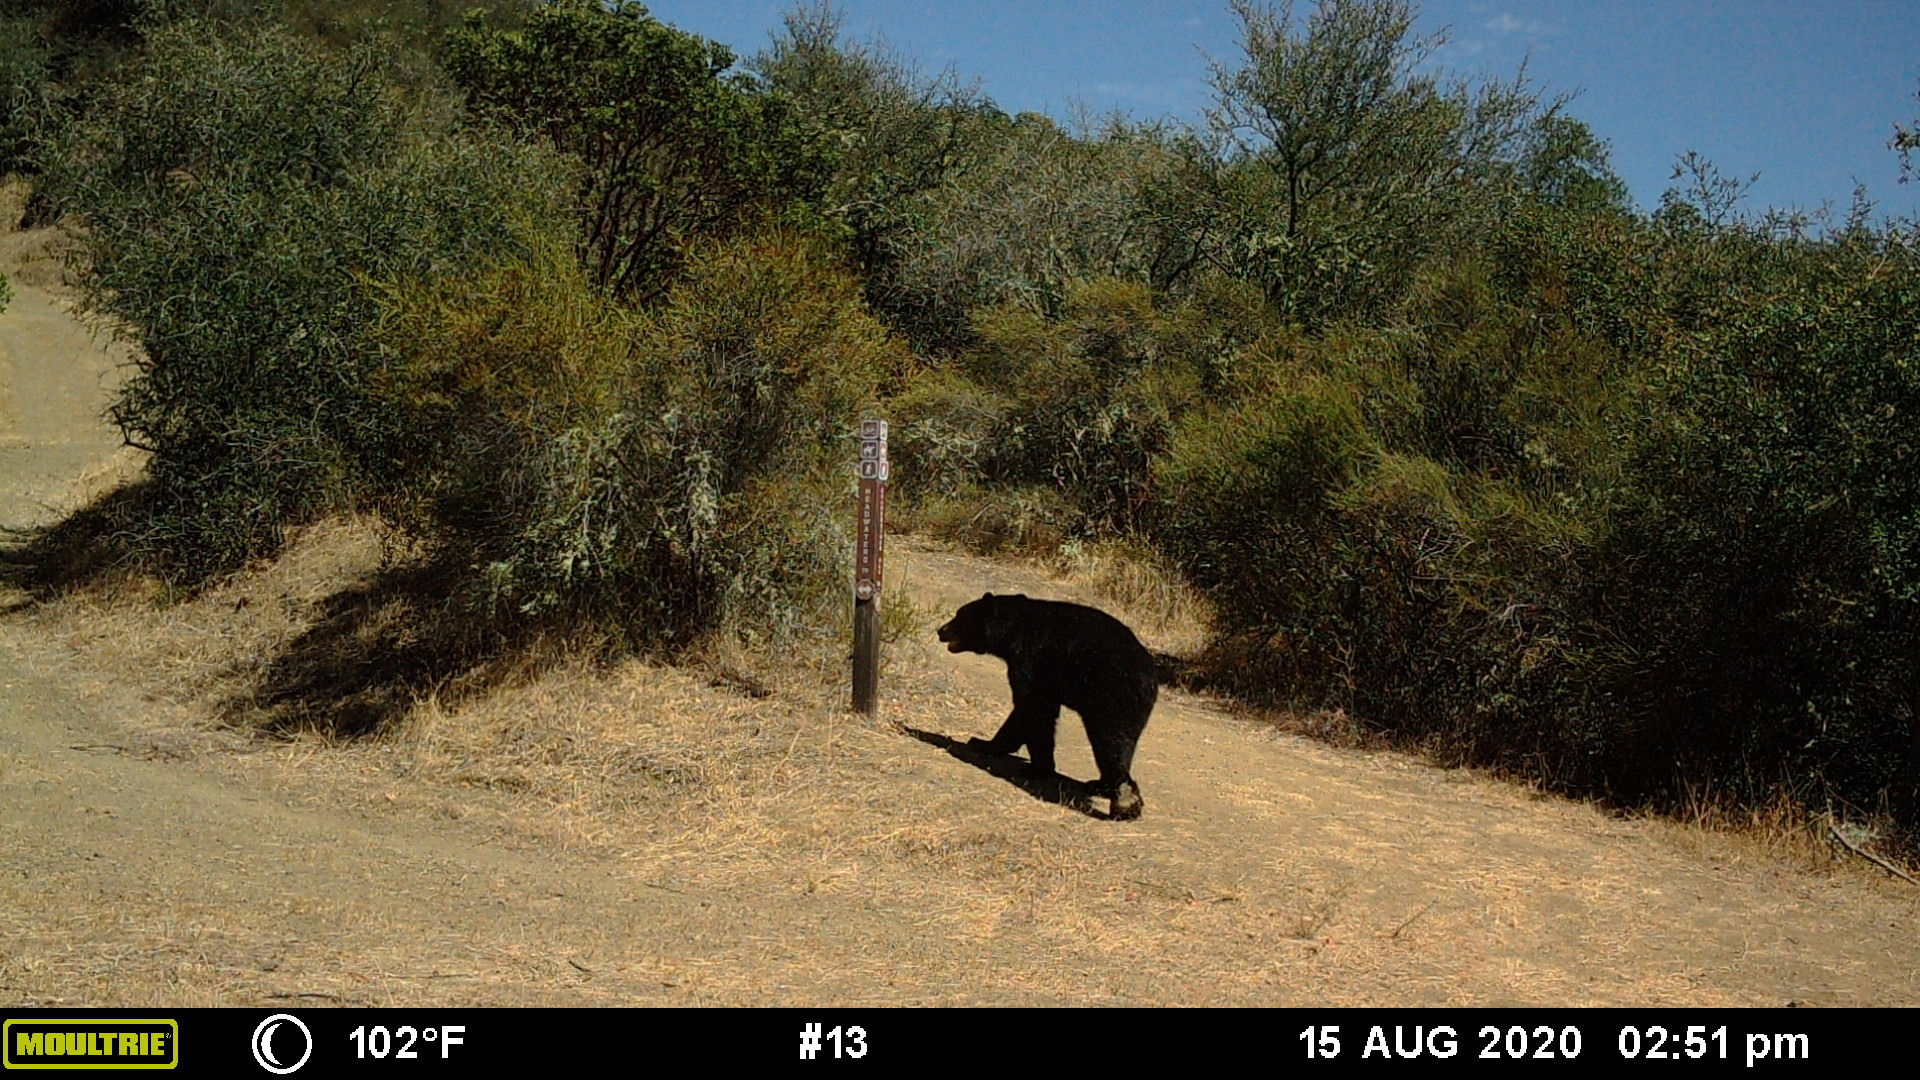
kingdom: Animalia
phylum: Chordata
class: Mammalia
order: Carnivora
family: Ursidae
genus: Ursus
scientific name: Ursus americanus
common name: American black bear
